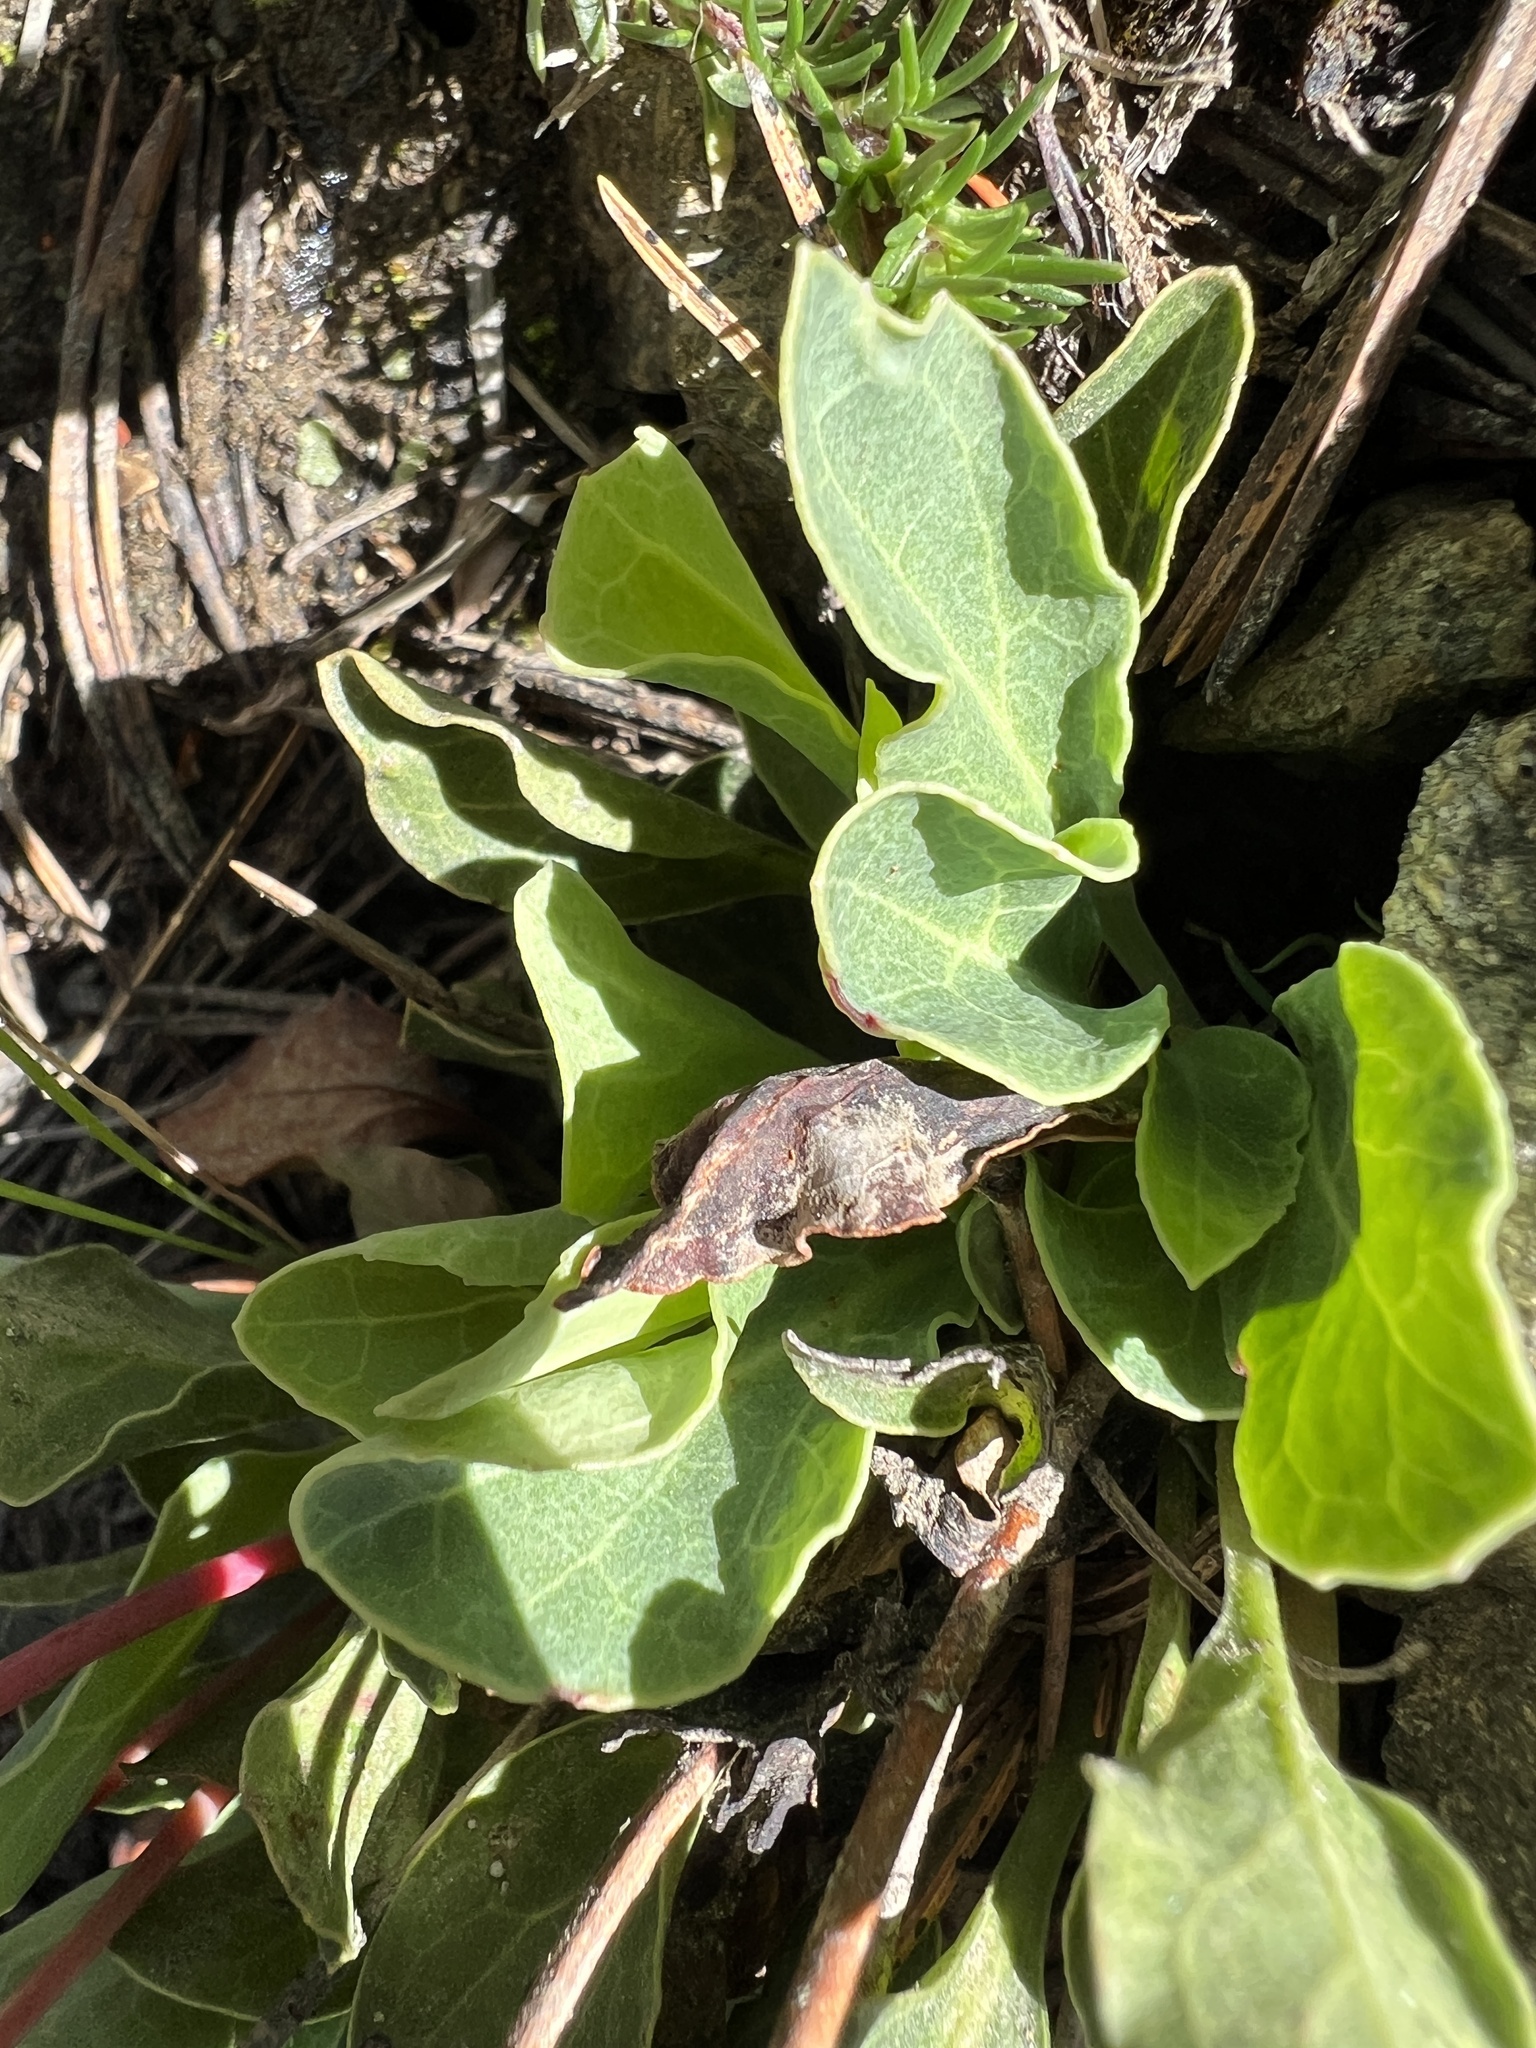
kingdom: Plantae
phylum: Tracheophyta
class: Magnoliopsida
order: Ericales
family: Ericaceae
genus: Pyrola
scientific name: Pyrola dentata
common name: Tooth-leaved wintergreen
